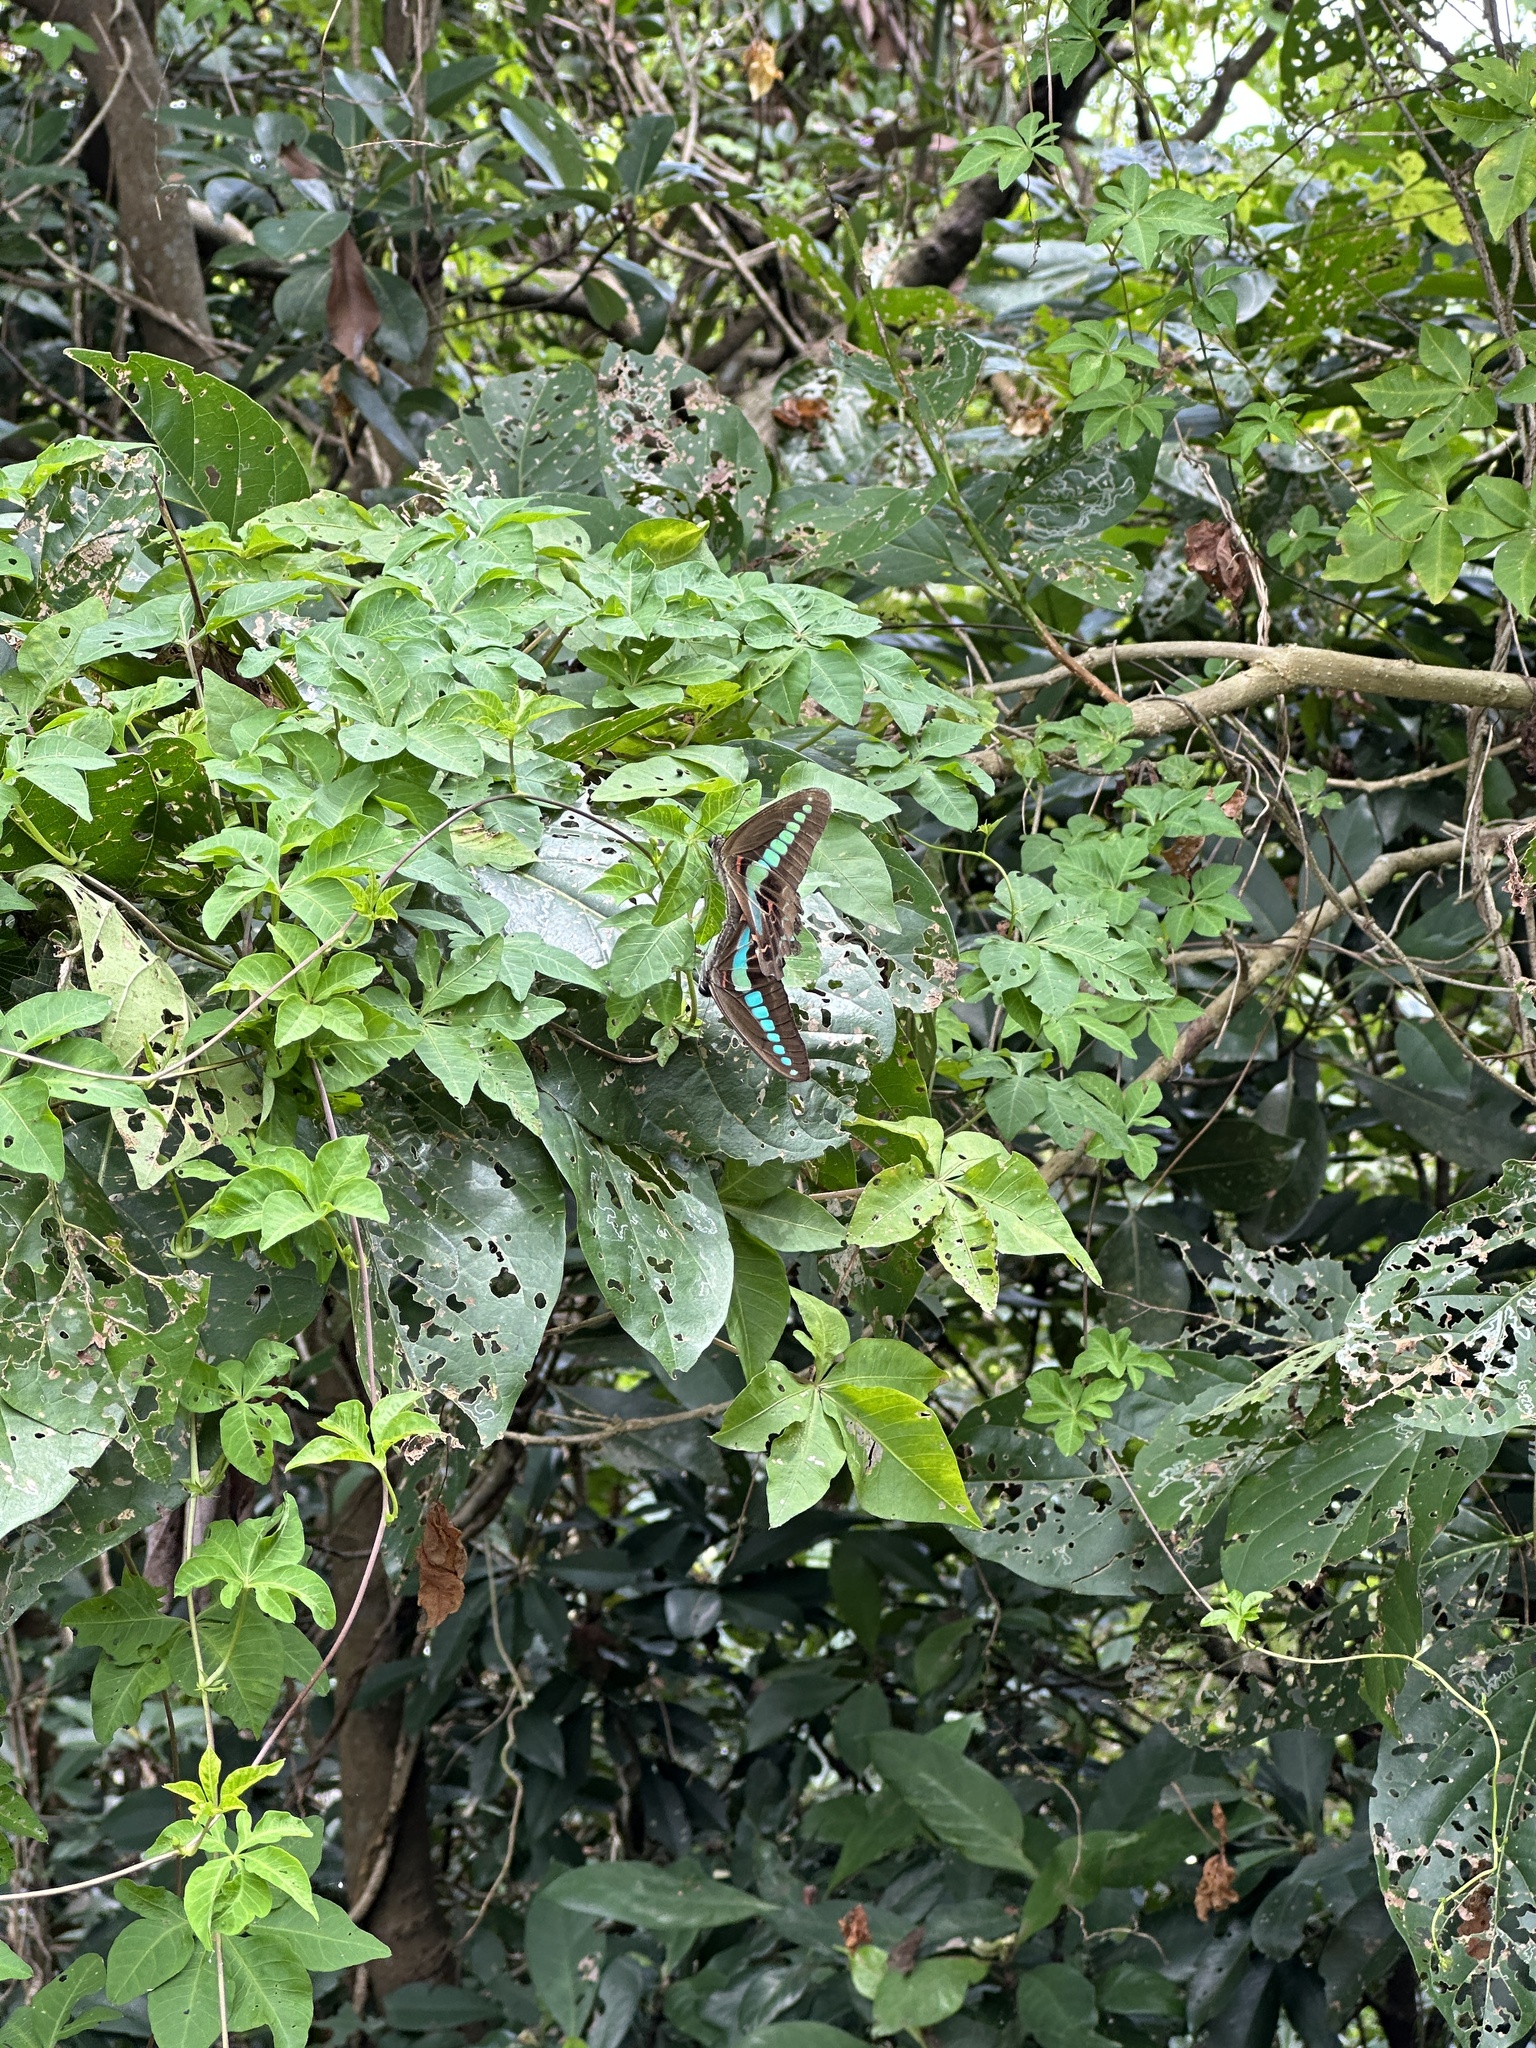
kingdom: Fungi
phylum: Ascomycota
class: Sordariomycetes
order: Microascales
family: Microascaceae
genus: Graphium
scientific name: Graphium sarpedon
